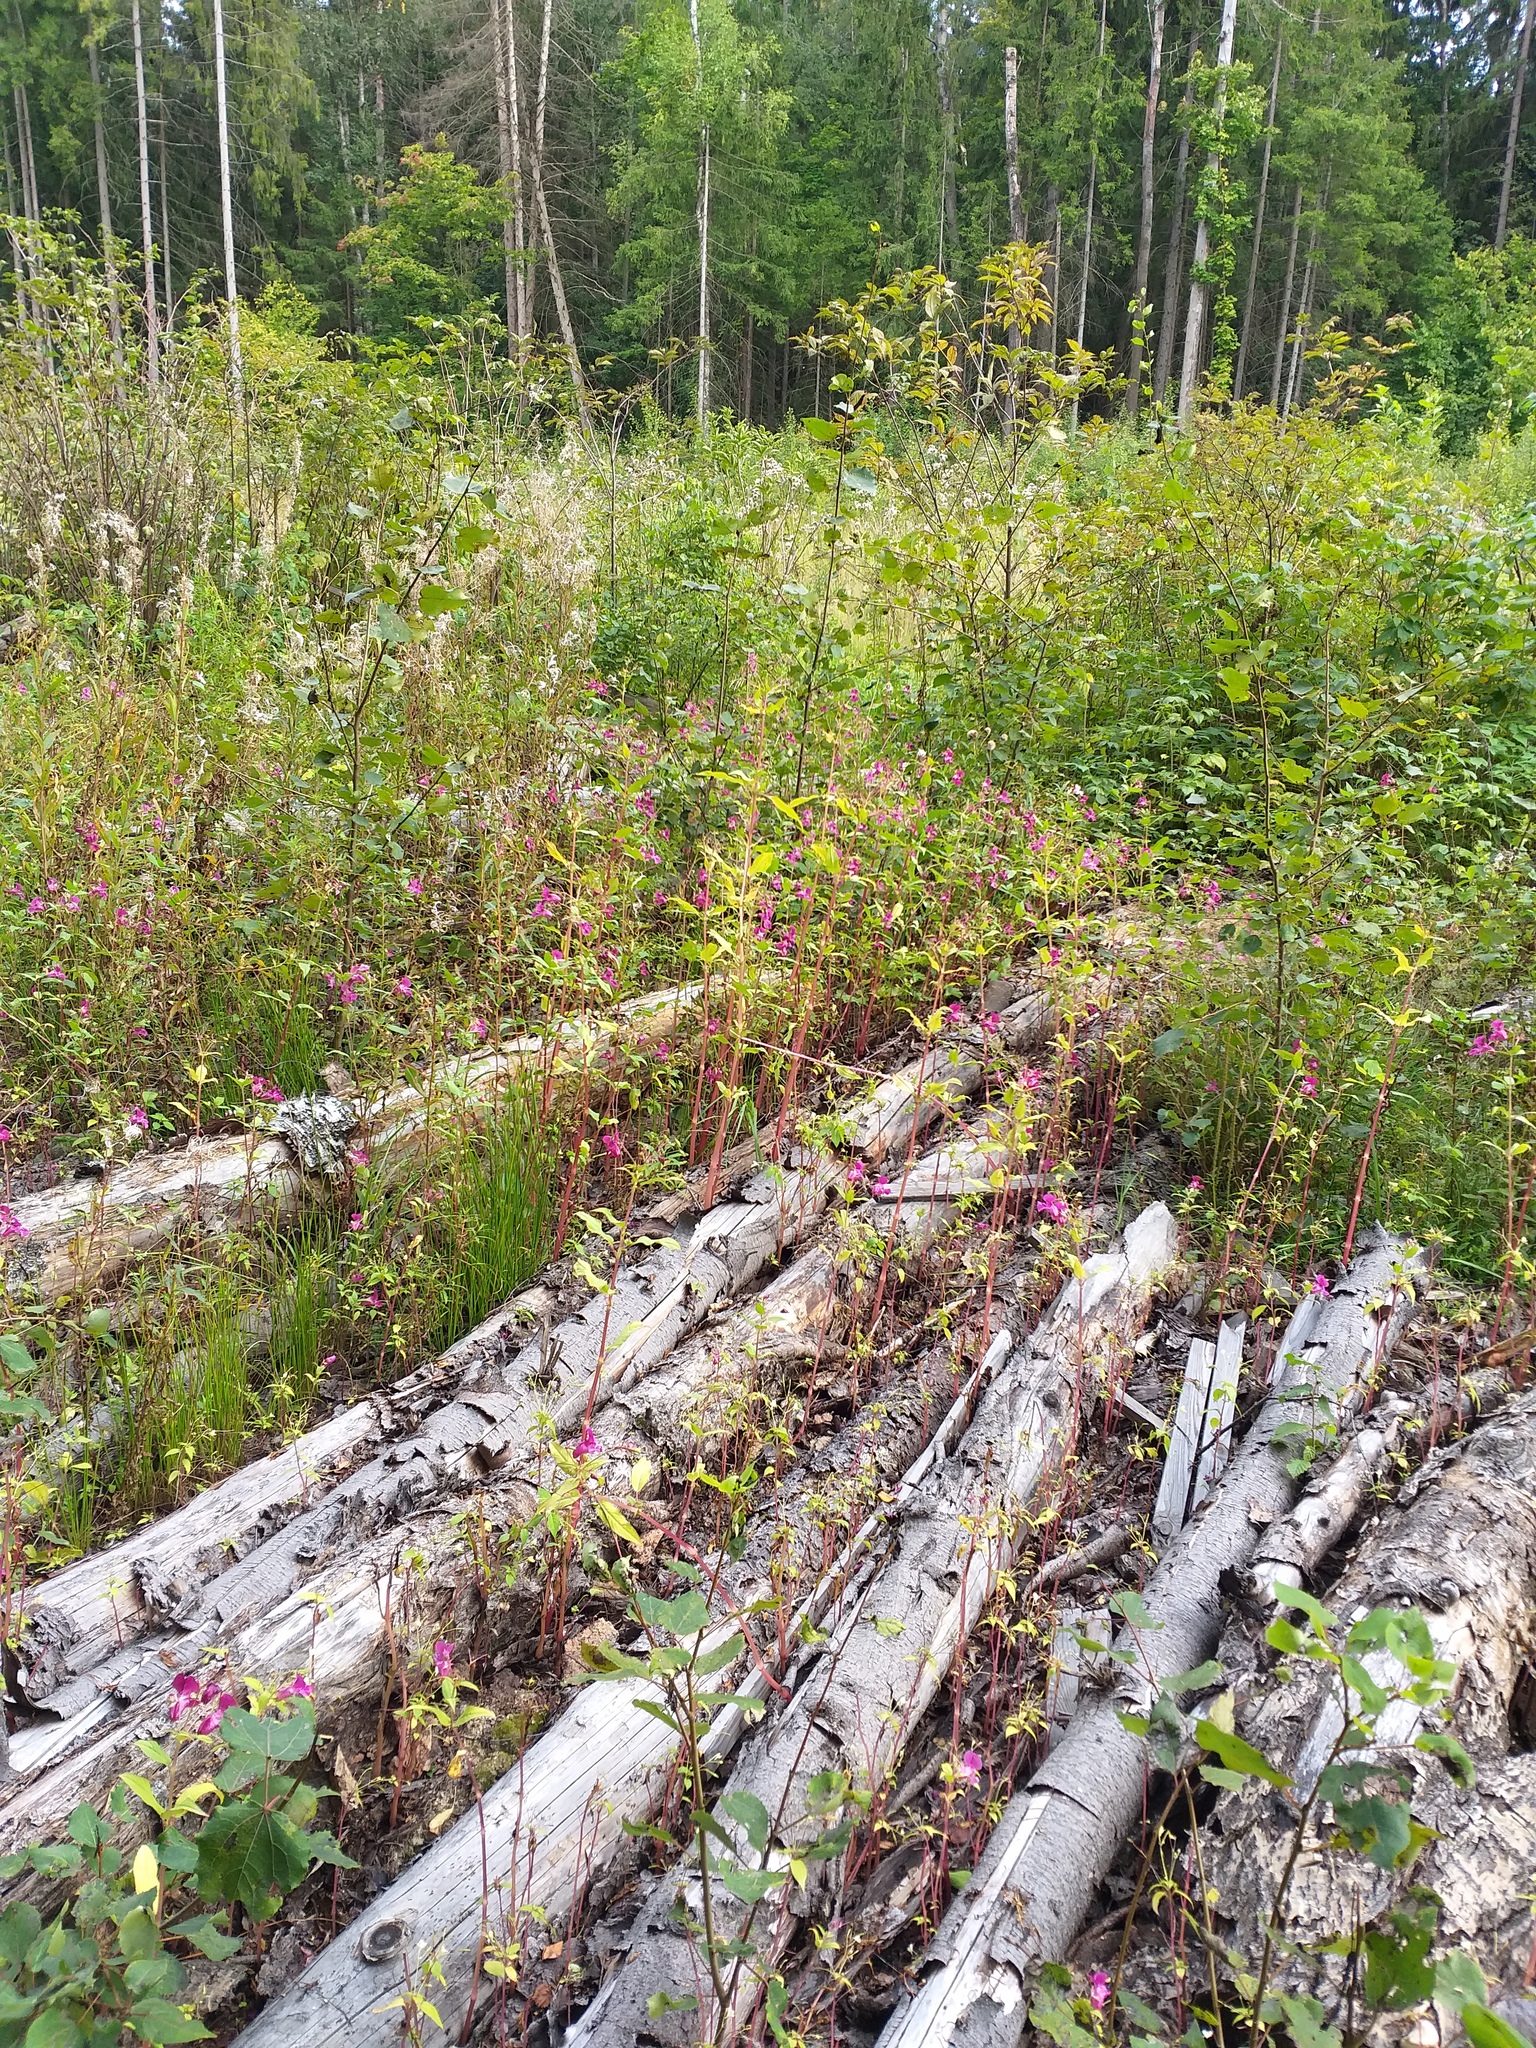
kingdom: Plantae
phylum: Tracheophyta
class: Magnoliopsida
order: Ericales
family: Balsaminaceae
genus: Impatiens
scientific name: Impatiens glandulifera
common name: Himalayan balsam
